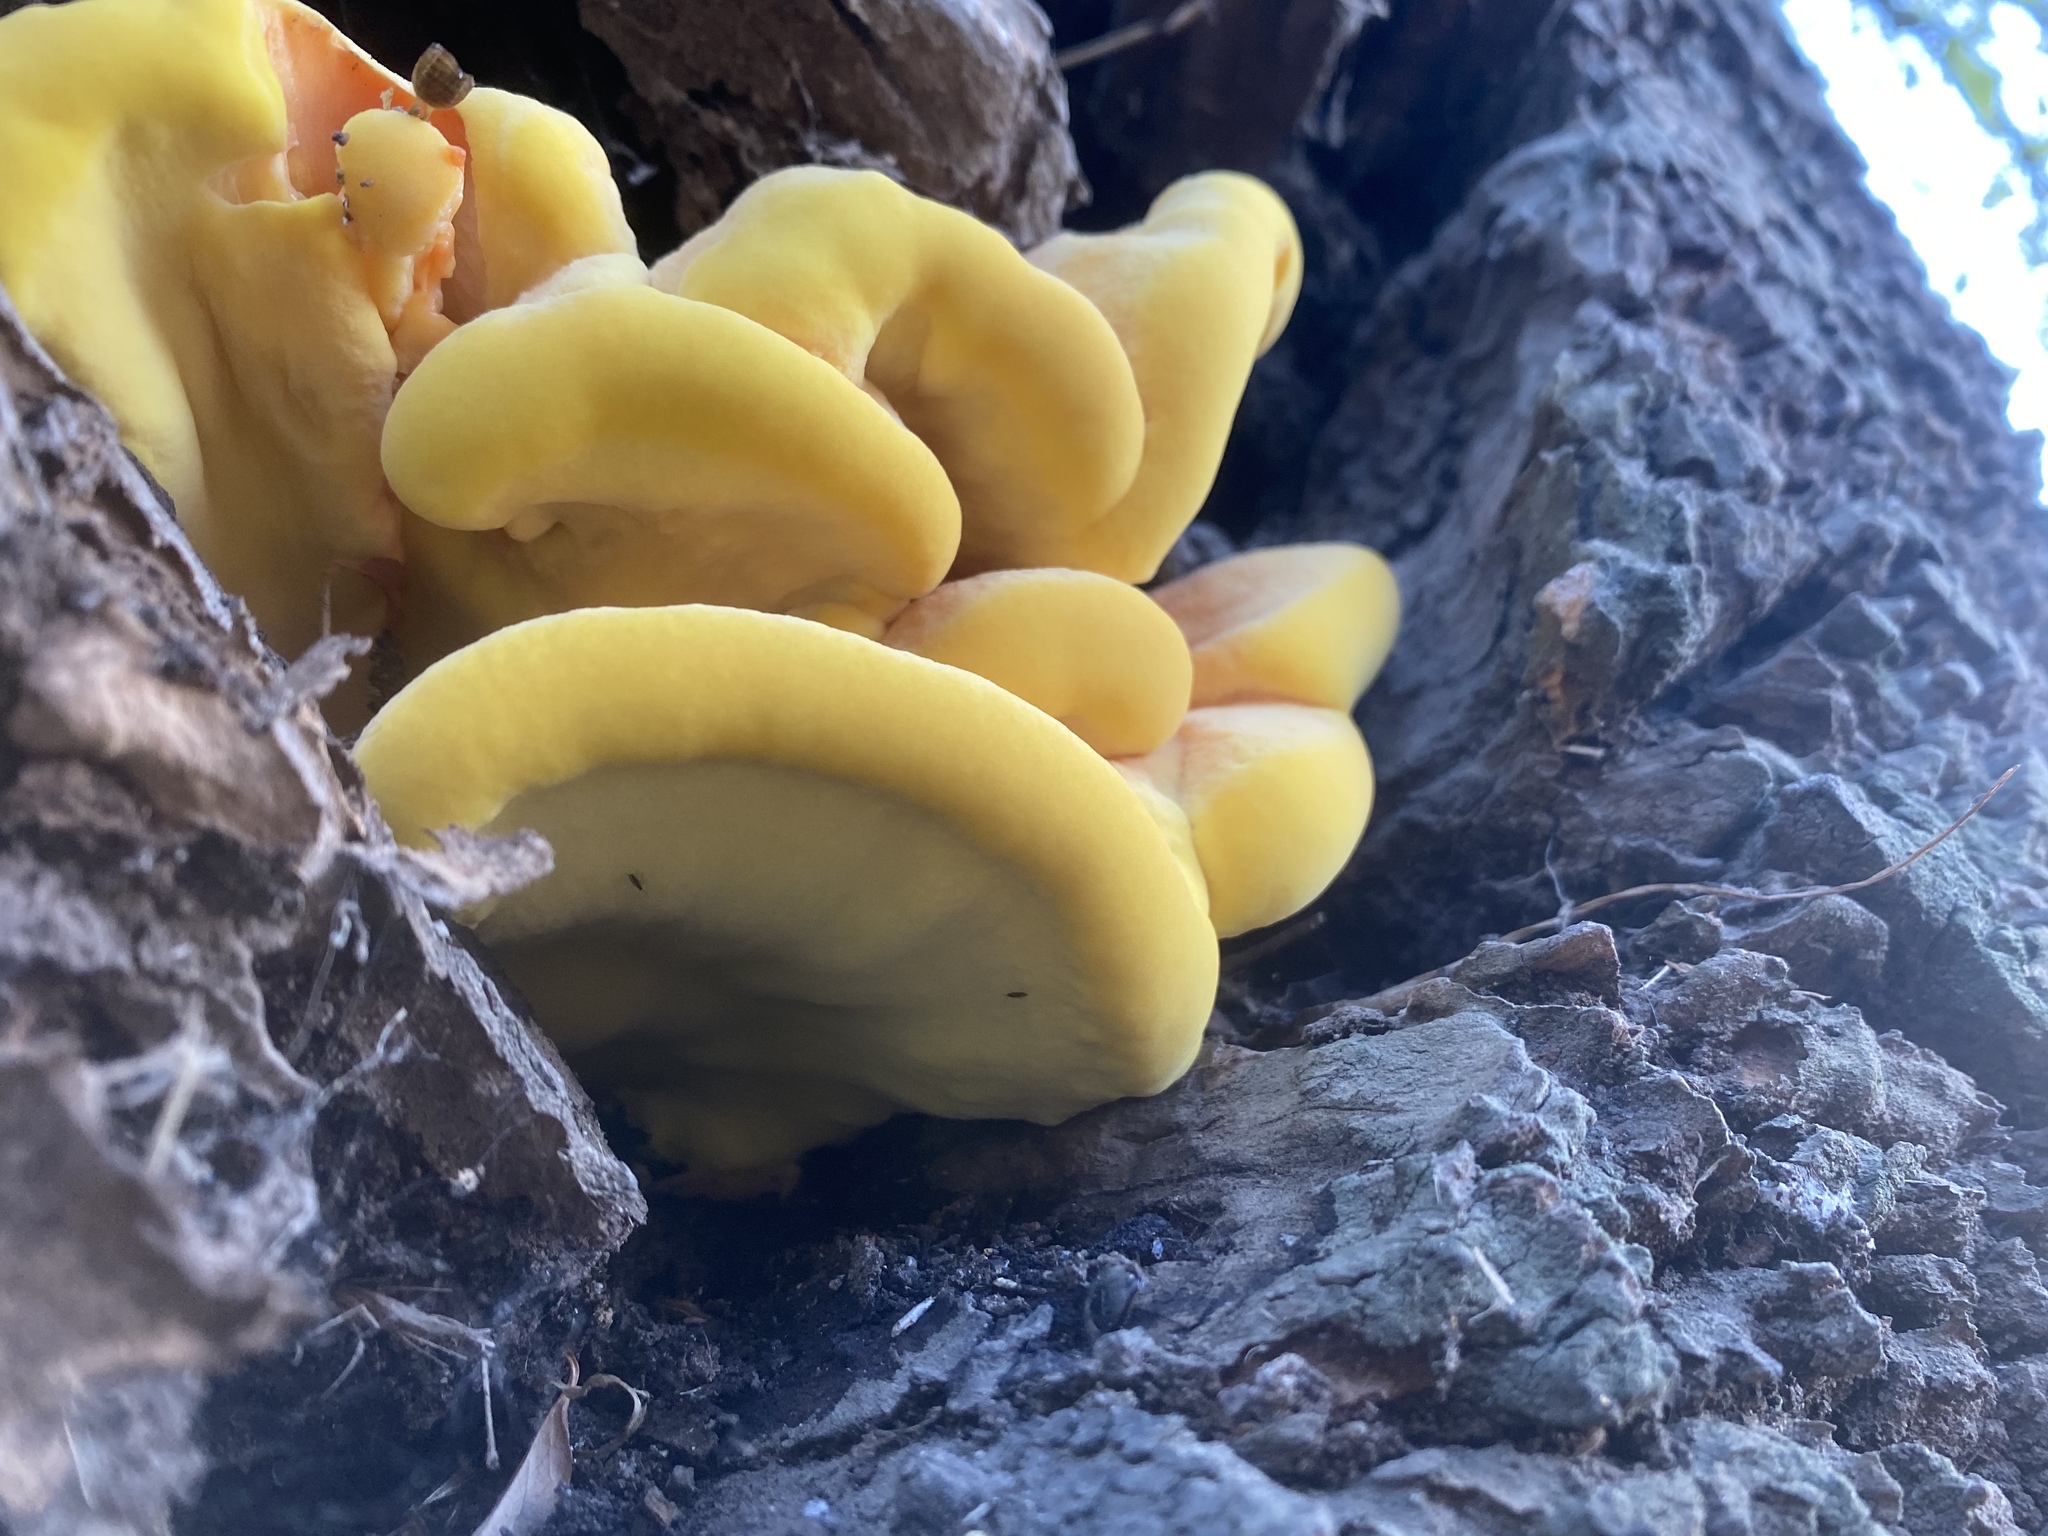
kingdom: Fungi
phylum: Basidiomycota
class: Agaricomycetes
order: Polyporales
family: Laetiporaceae
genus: Laetiporus
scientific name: Laetiporus gilbertsonii
